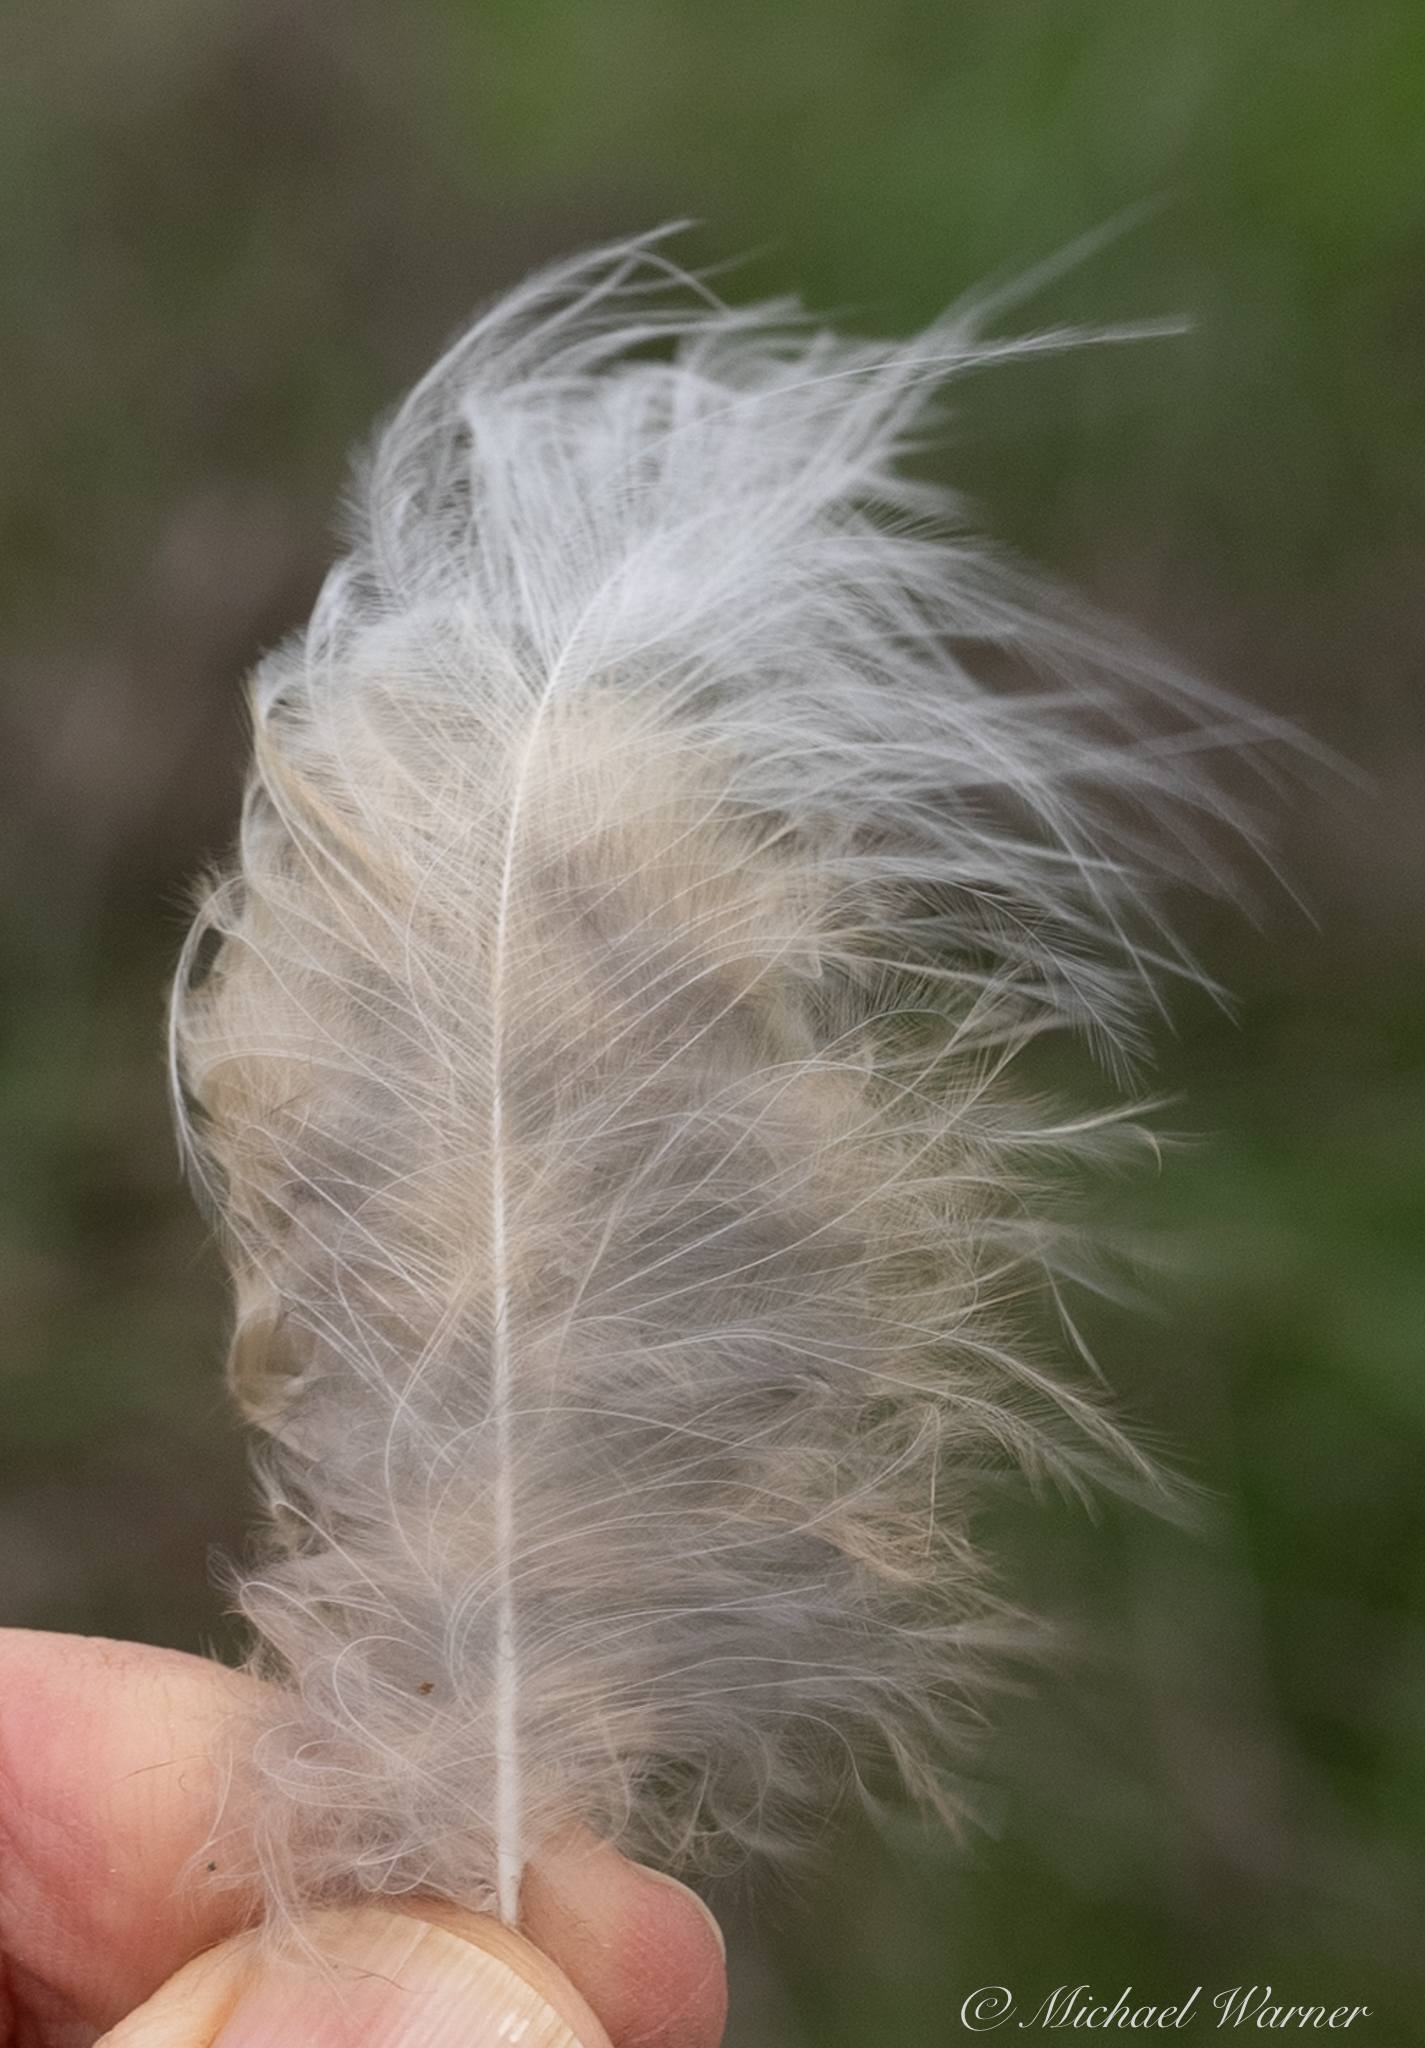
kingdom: Animalia
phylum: Chordata
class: Aves
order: Strigiformes
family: Strigidae
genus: Bubo
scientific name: Bubo virginianus
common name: Great horned owl
